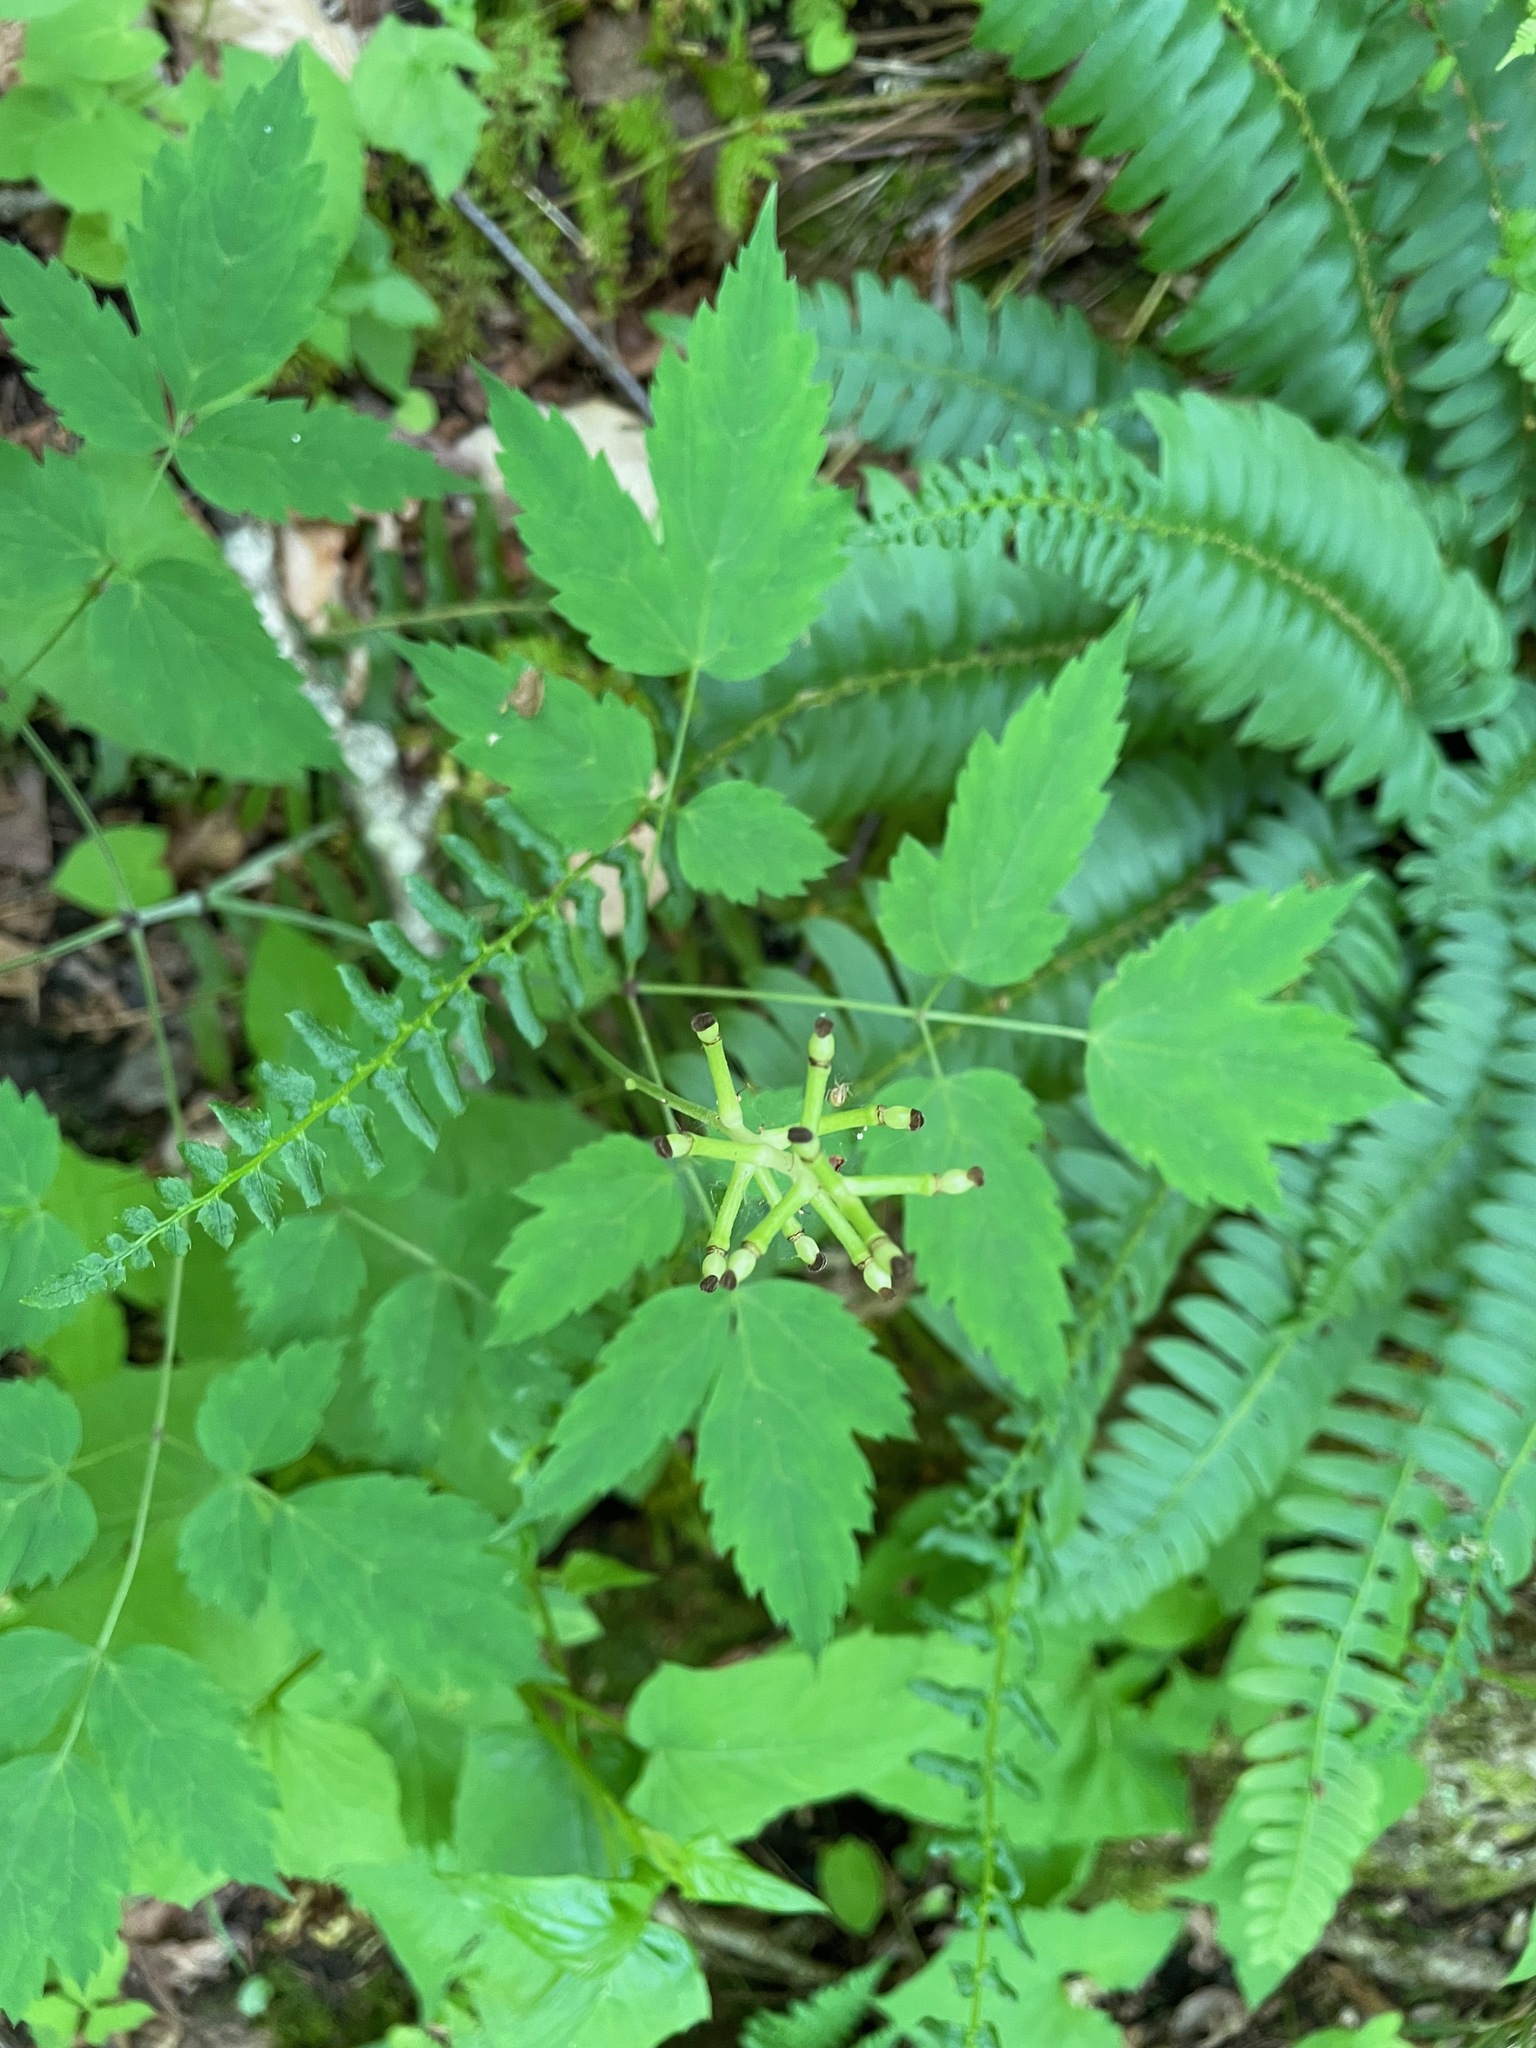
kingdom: Plantae
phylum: Tracheophyta
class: Magnoliopsida
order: Ranunculales
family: Ranunculaceae
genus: Actaea
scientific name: Actaea pachypoda
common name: Doll's-eyes
